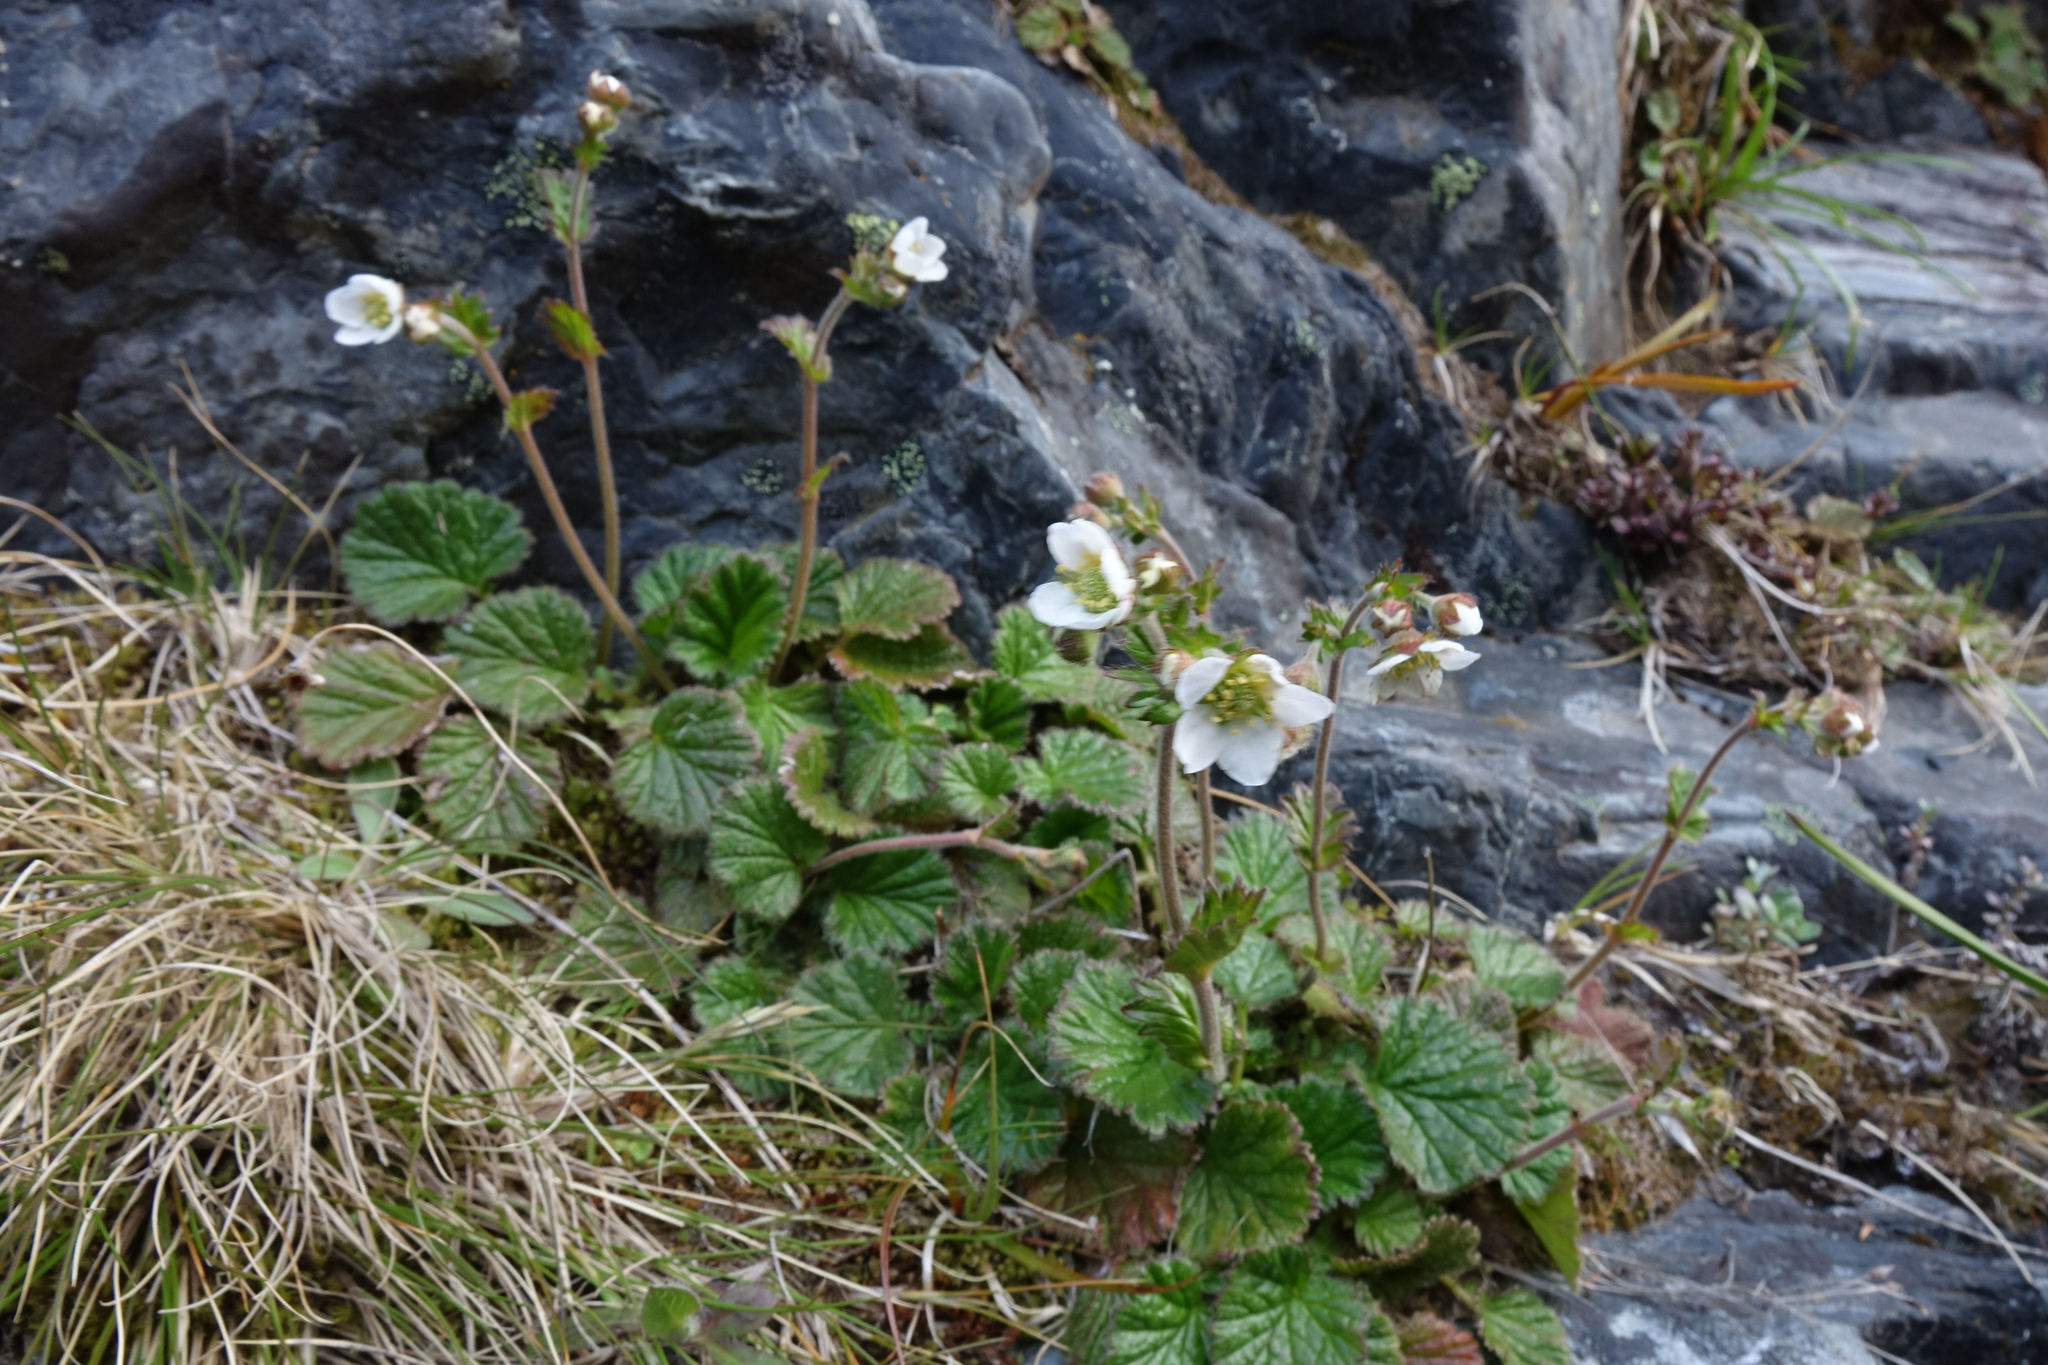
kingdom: Plantae
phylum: Tracheophyta
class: Magnoliopsida
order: Rosales
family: Rosaceae
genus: Geum
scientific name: Geum cockaynei
